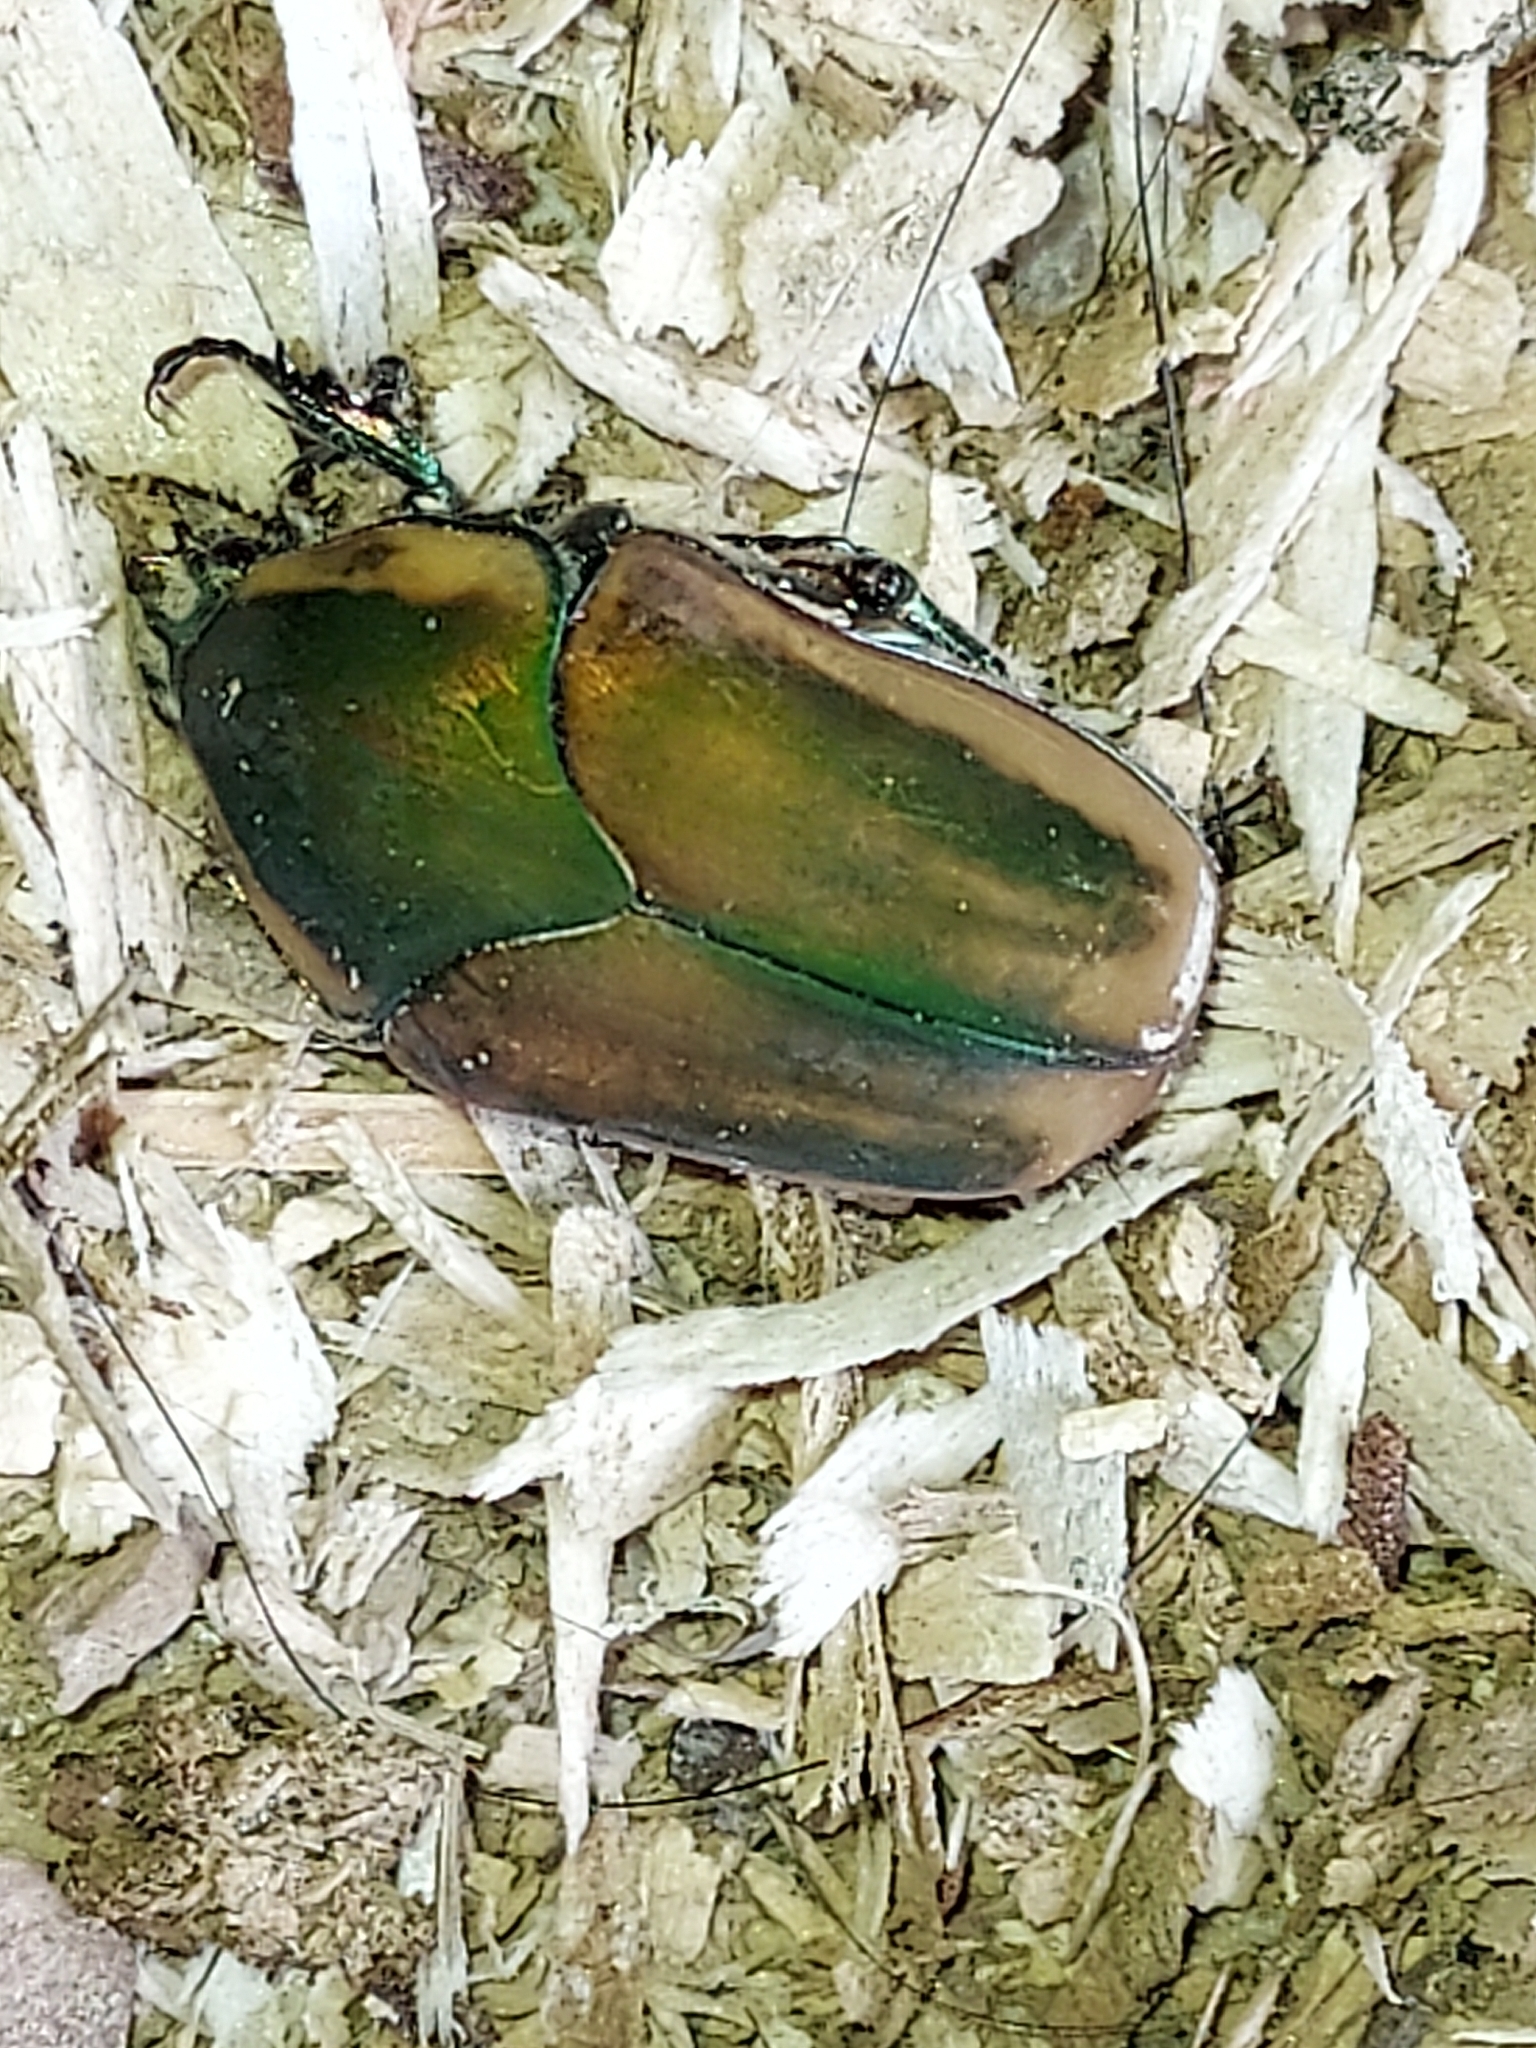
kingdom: Animalia
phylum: Arthropoda
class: Insecta
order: Coleoptera
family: Scarabaeidae
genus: Cotinis
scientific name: Cotinis nitida
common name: Common green june beetle
